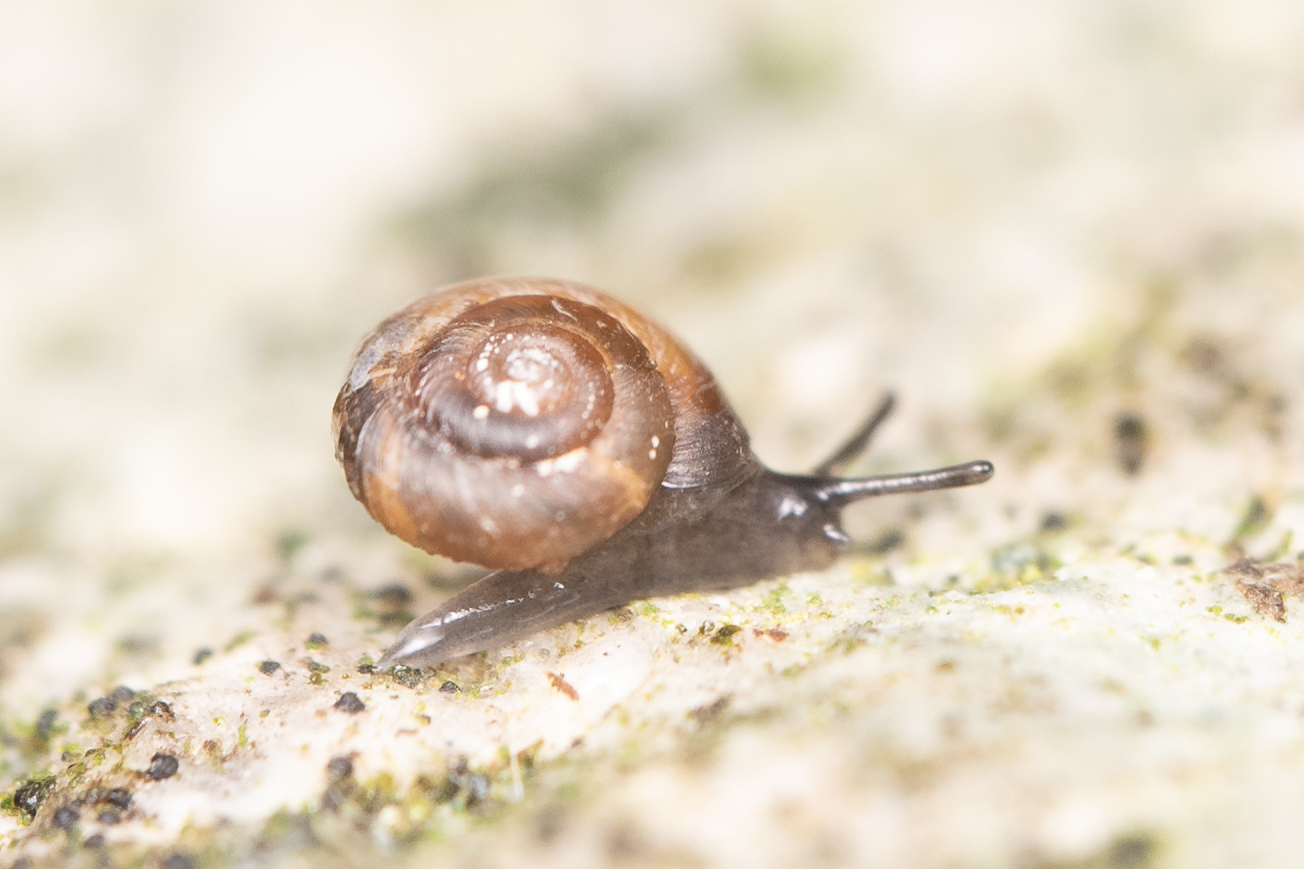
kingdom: Animalia
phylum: Mollusca
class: Gastropoda
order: Stylommatophora
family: Punctidae
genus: Paralaoma
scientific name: Paralaoma servilis
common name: Pinhead spot
